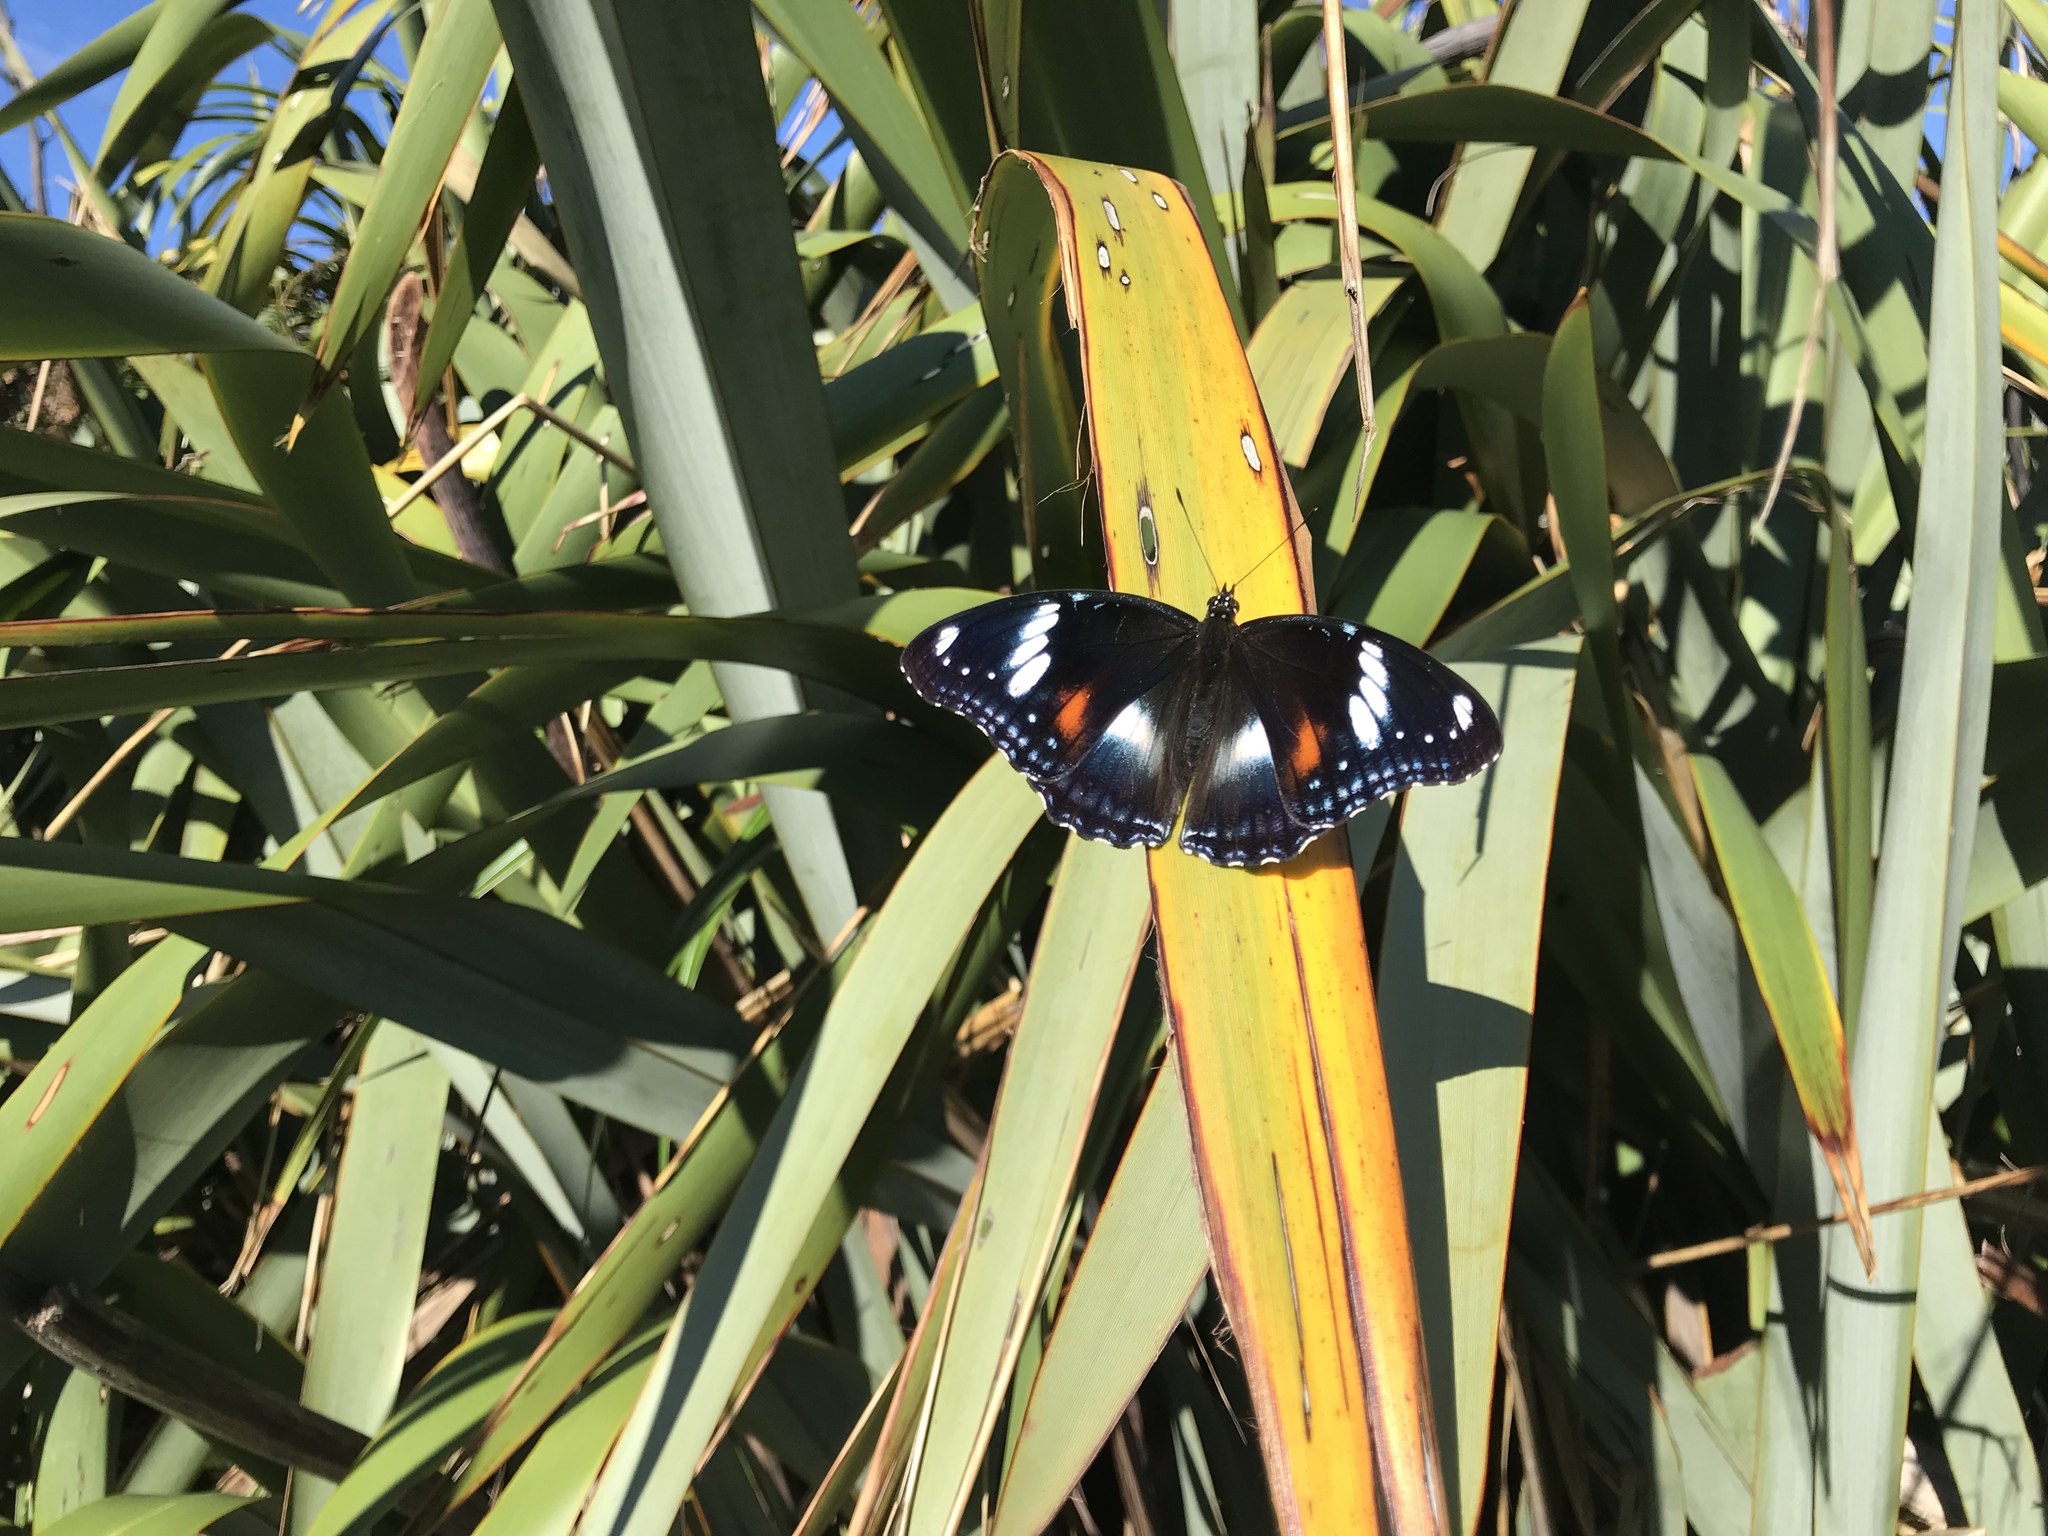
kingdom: Animalia
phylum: Arthropoda
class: Insecta
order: Lepidoptera
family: Nymphalidae
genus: Hypolimnas
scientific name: Hypolimnas bolina
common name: Great eggfly
